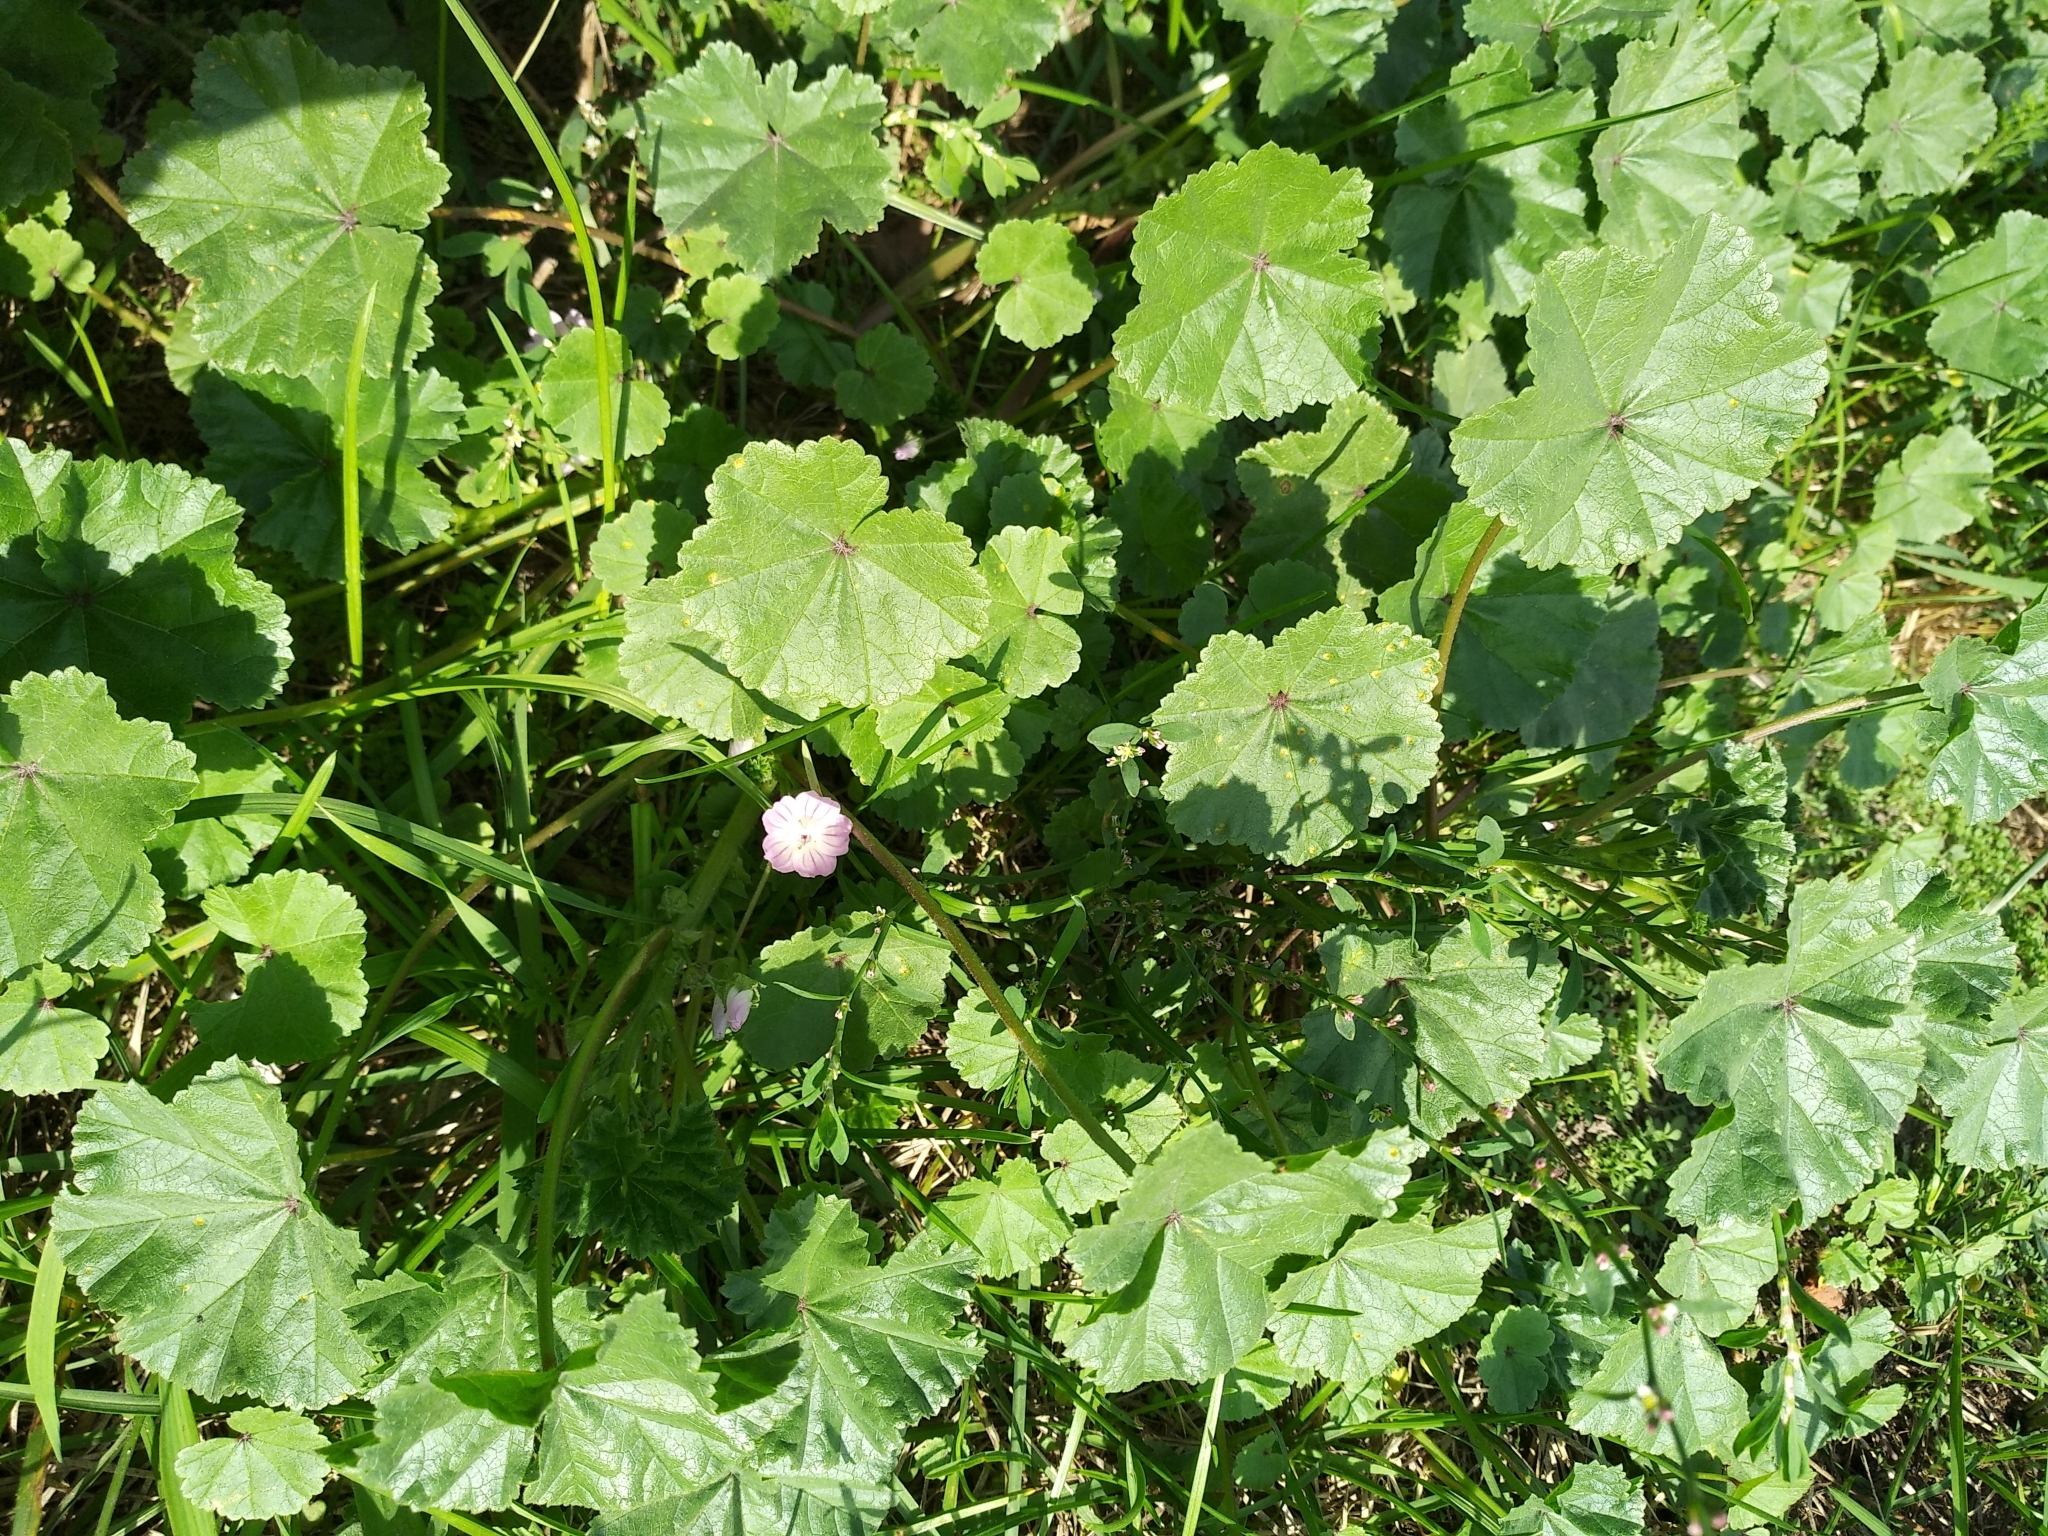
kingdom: Plantae
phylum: Tracheophyta
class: Magnoliopsida
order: Malvales
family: Malvaceae
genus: Malva
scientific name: Malva neglecta
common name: Common mallow
